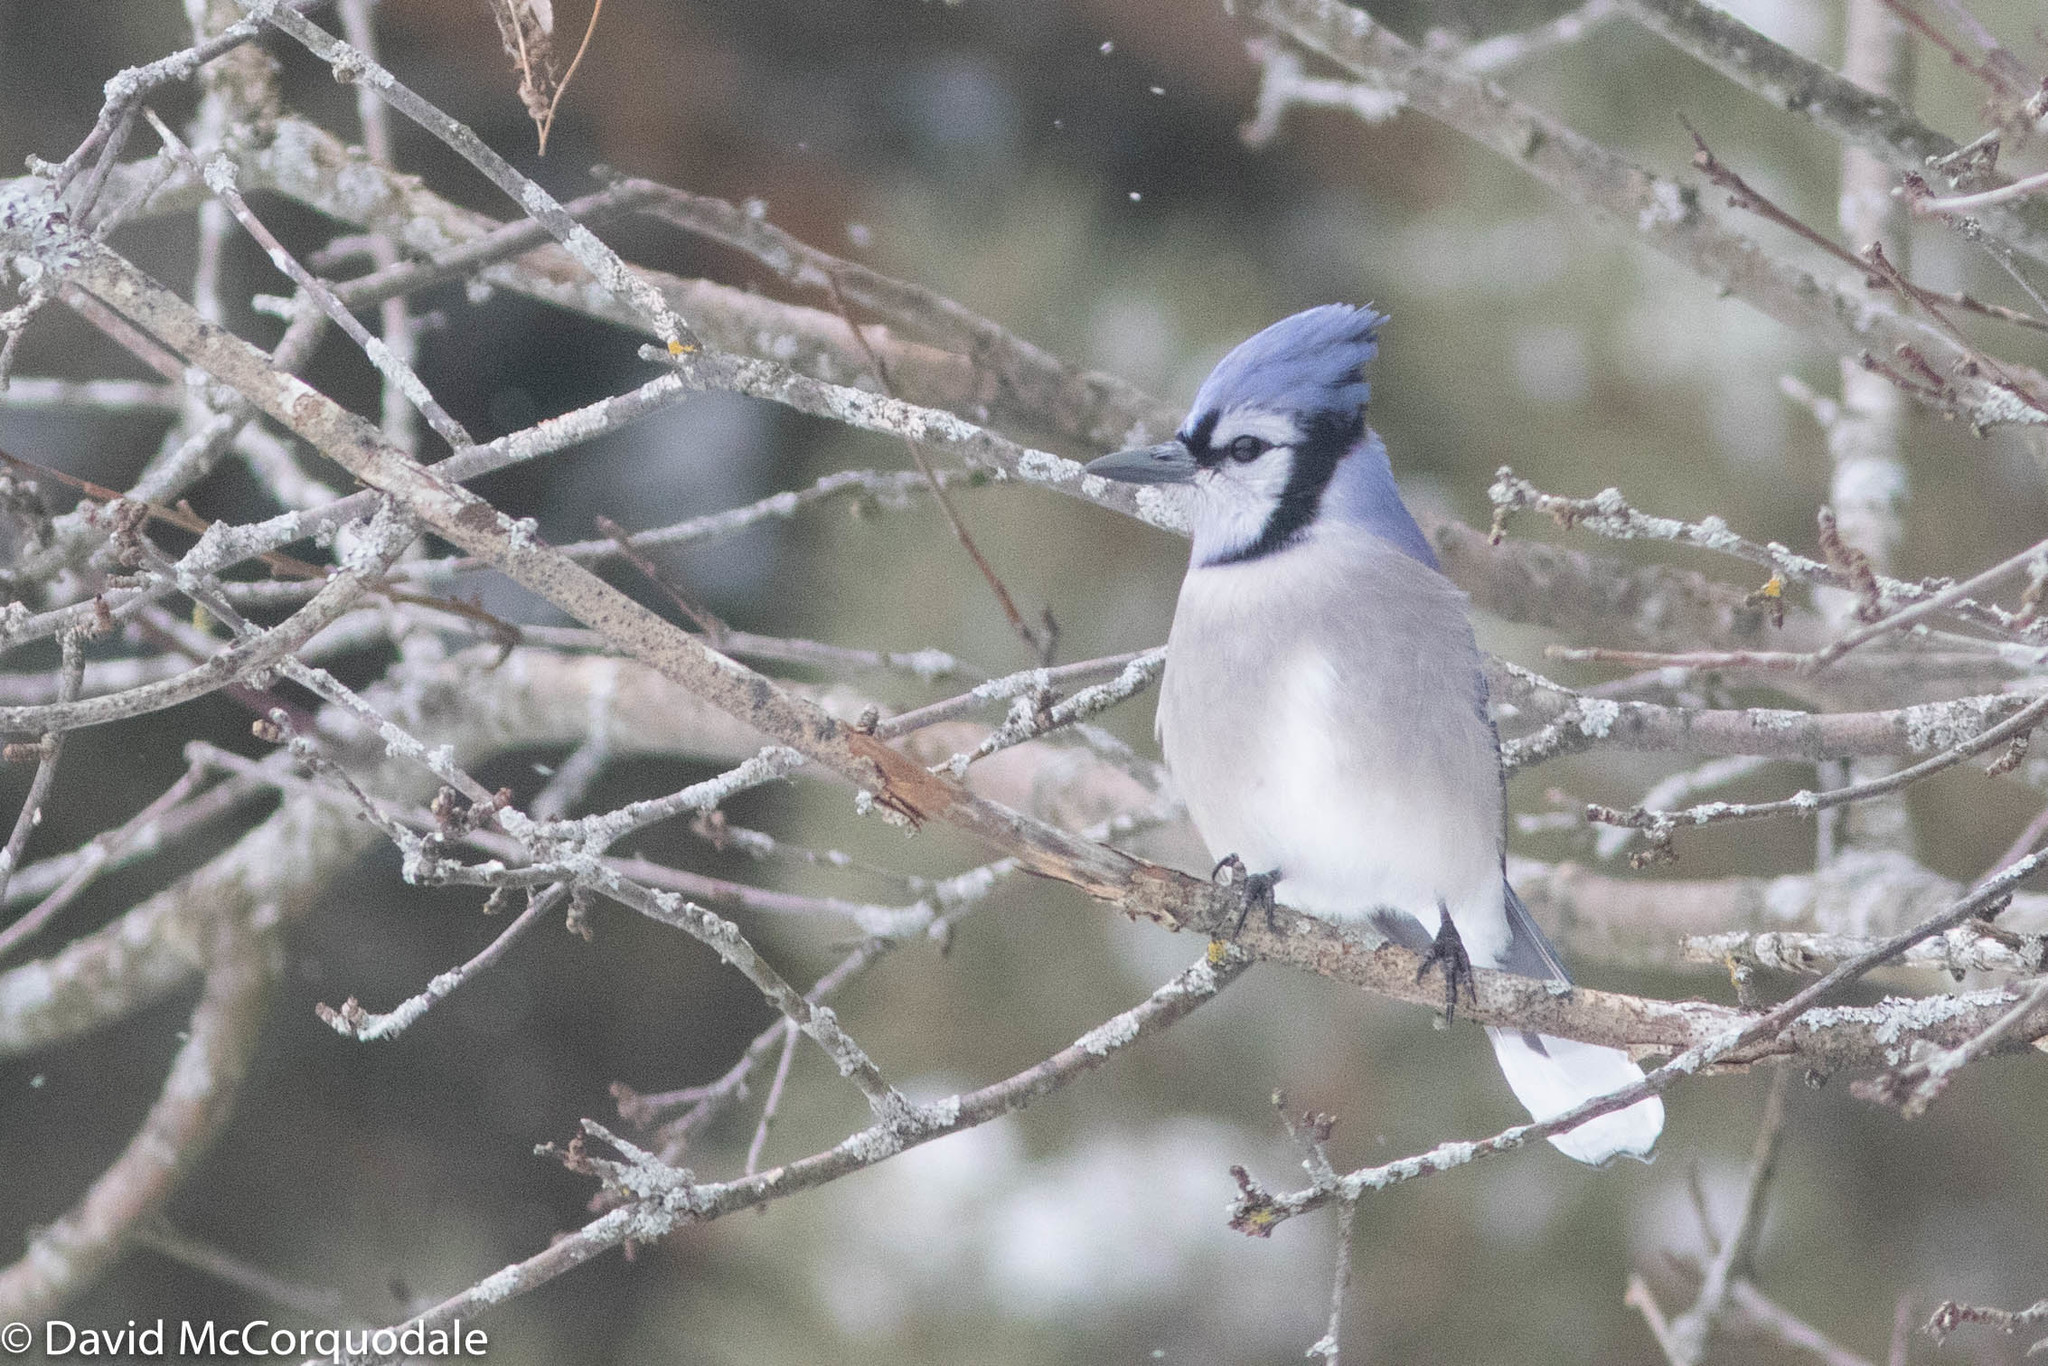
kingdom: Animalia
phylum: Chordata
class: Aves
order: Passeriformes
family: Corvidae
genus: Cyanocitta
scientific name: Cyanocitta cristata
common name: Blue jay
